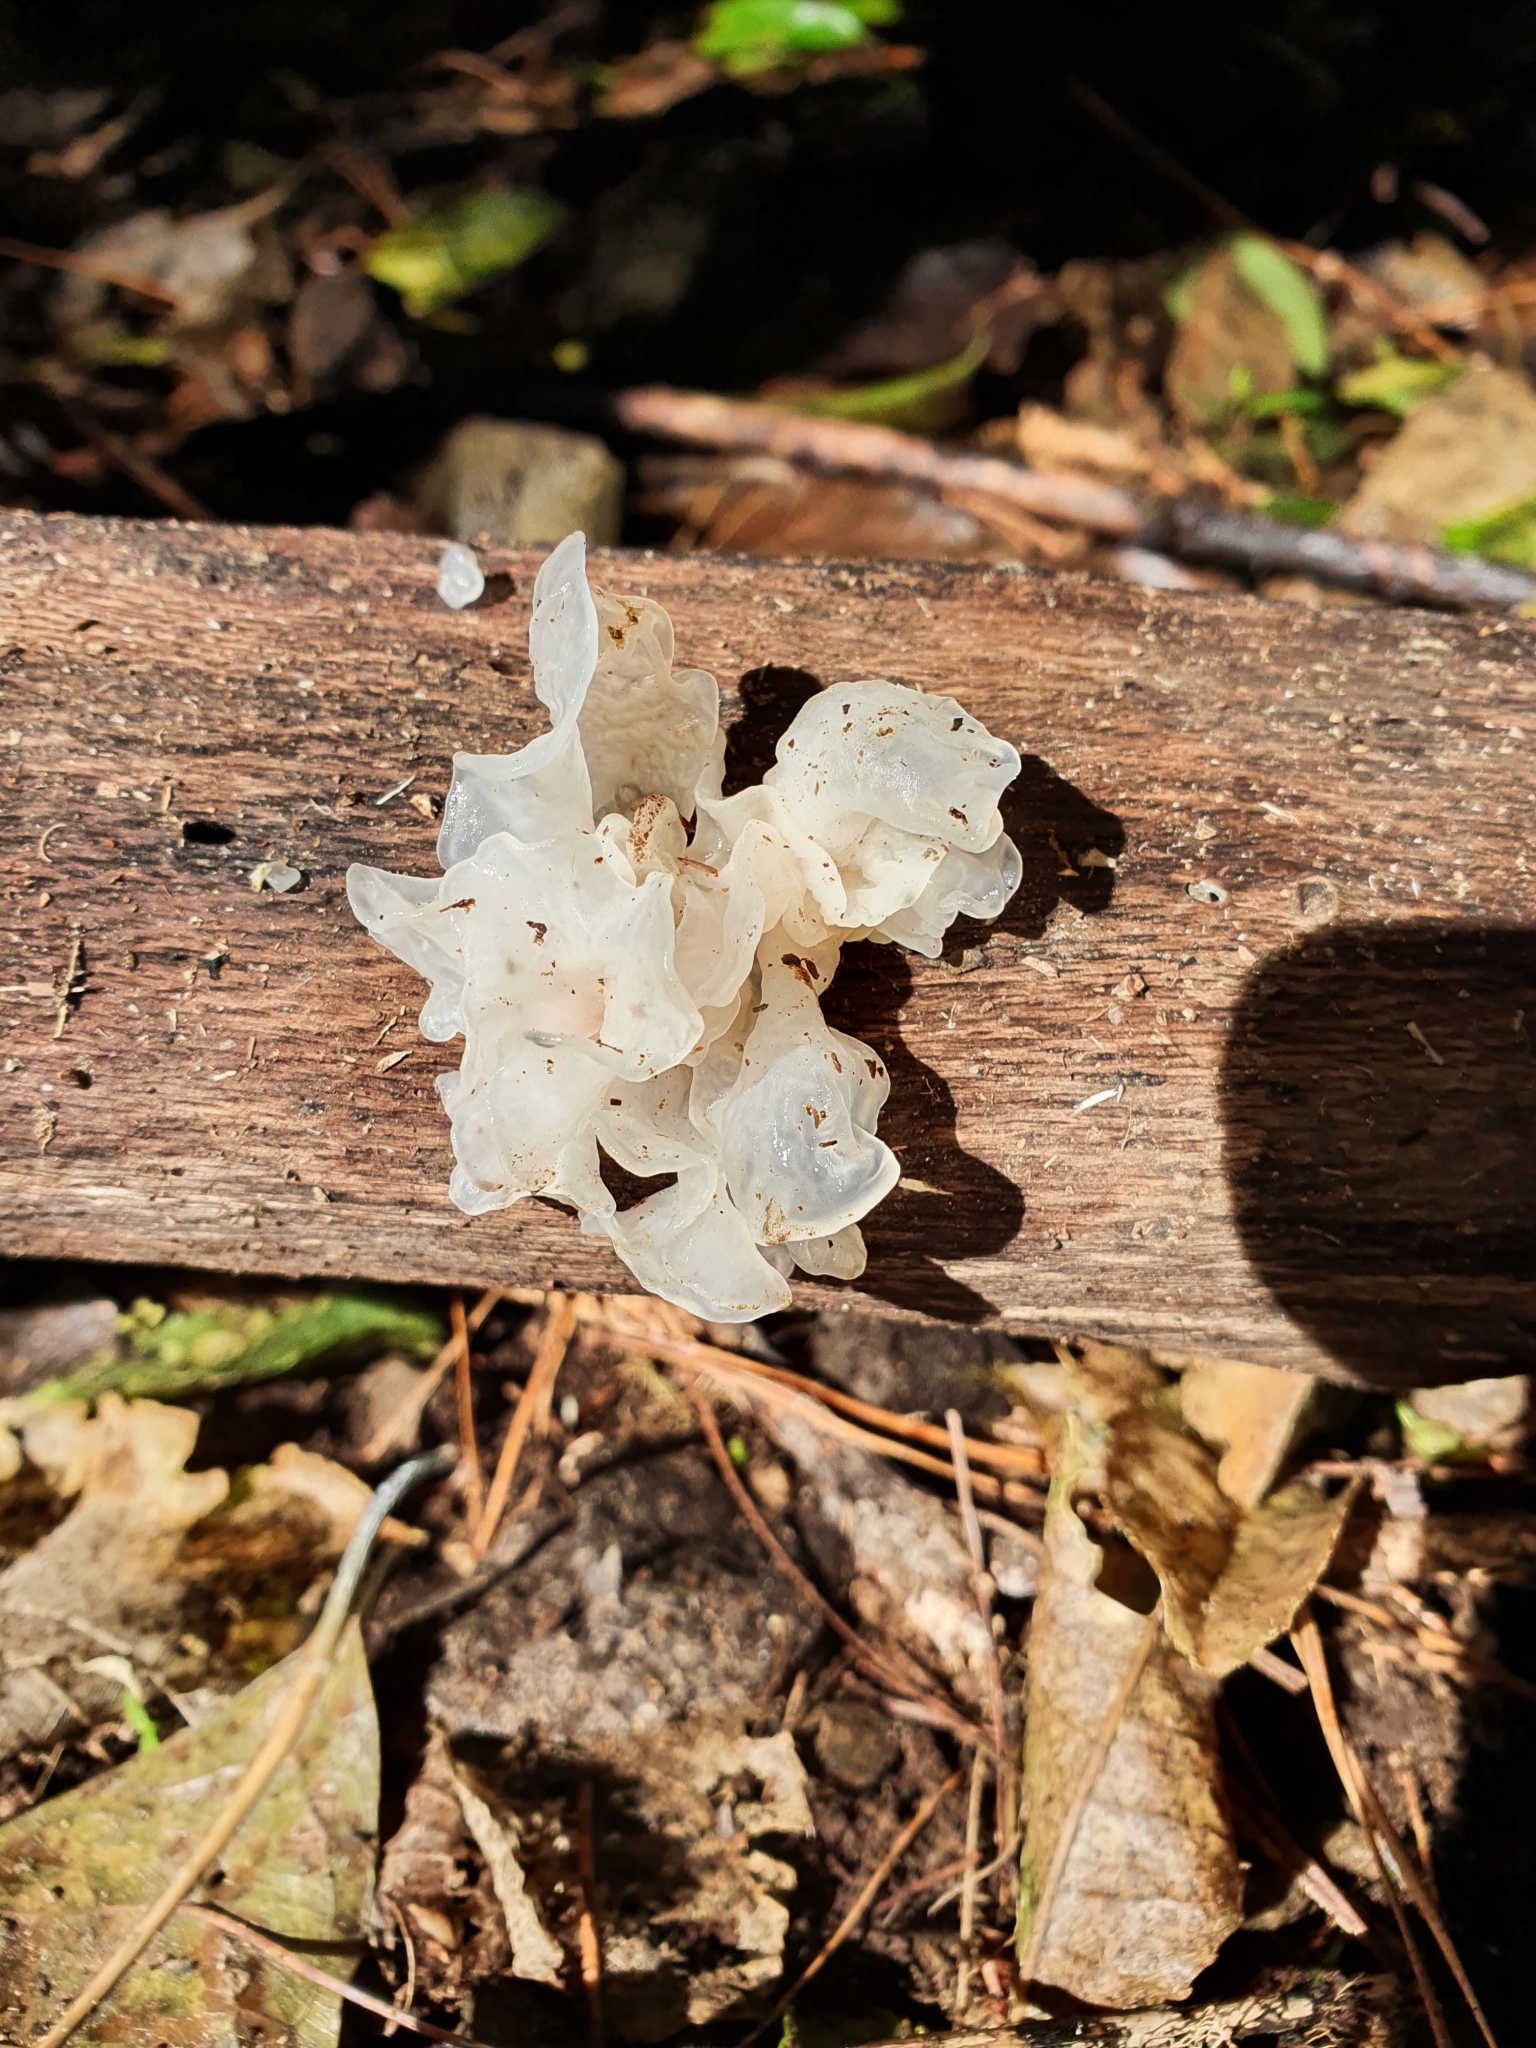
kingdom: Fungi
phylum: Basidiomycota
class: Tremellomycetes
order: Tremellales
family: Tremellaceae
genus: Tremella
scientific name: Tremella fuciformis
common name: Snow fungus
